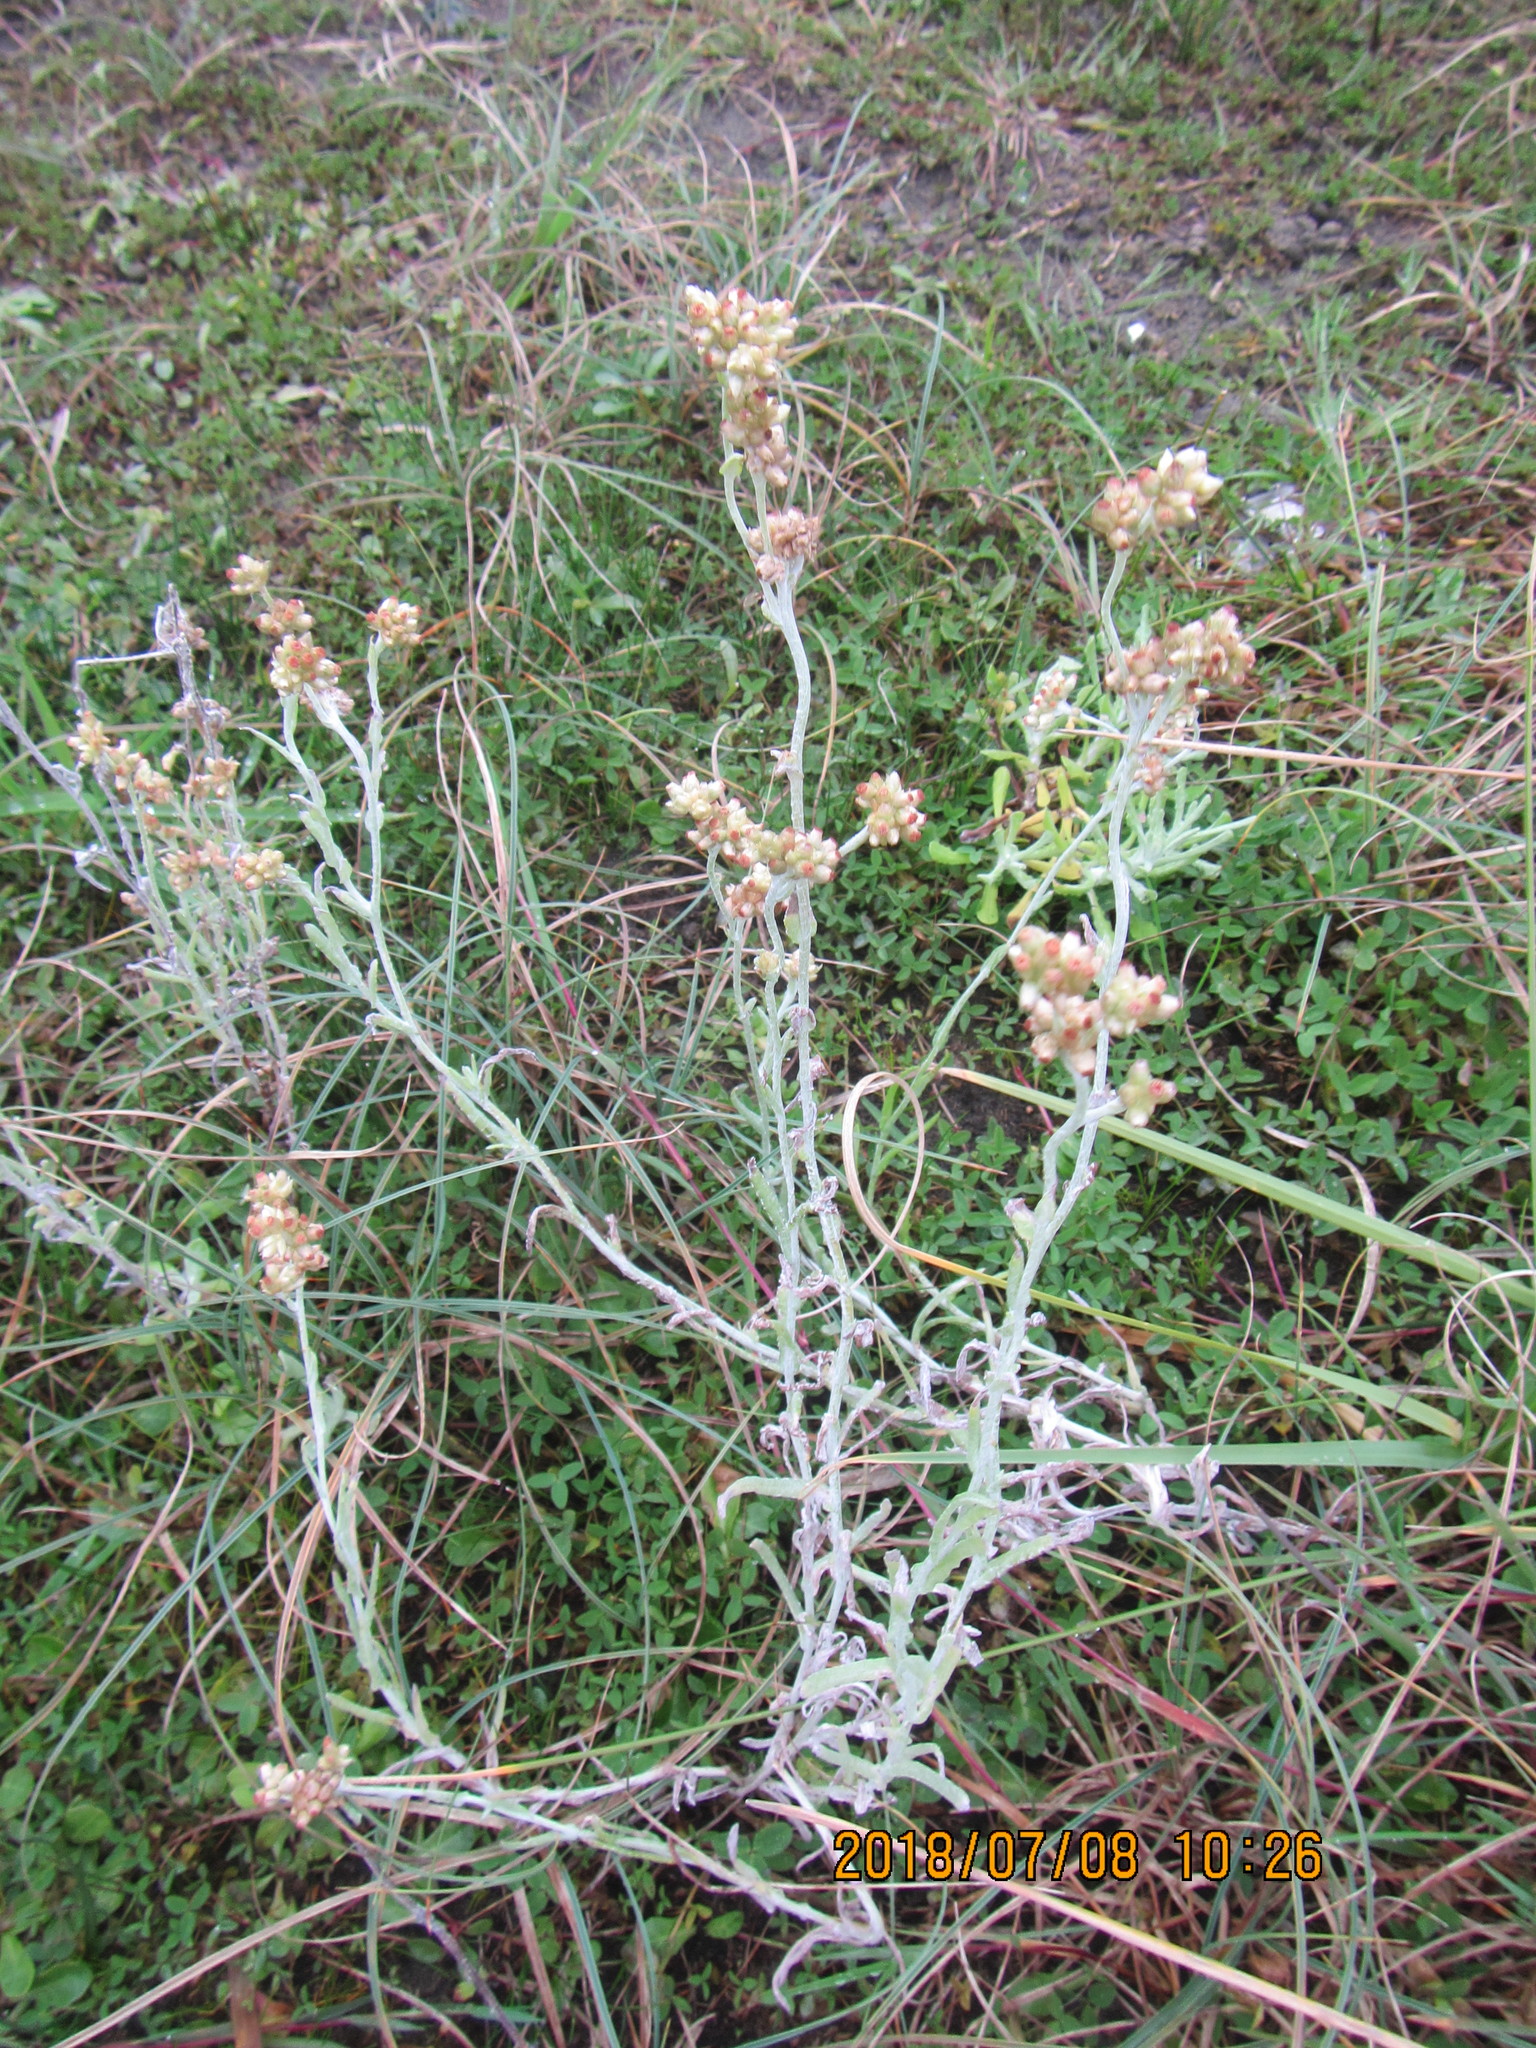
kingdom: Plantae
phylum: Tracheophyta
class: Magnoliopsida
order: Asterales
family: Asteraceae
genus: Helichrysum
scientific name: Helichrysum luteoalbum
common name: Daisy
